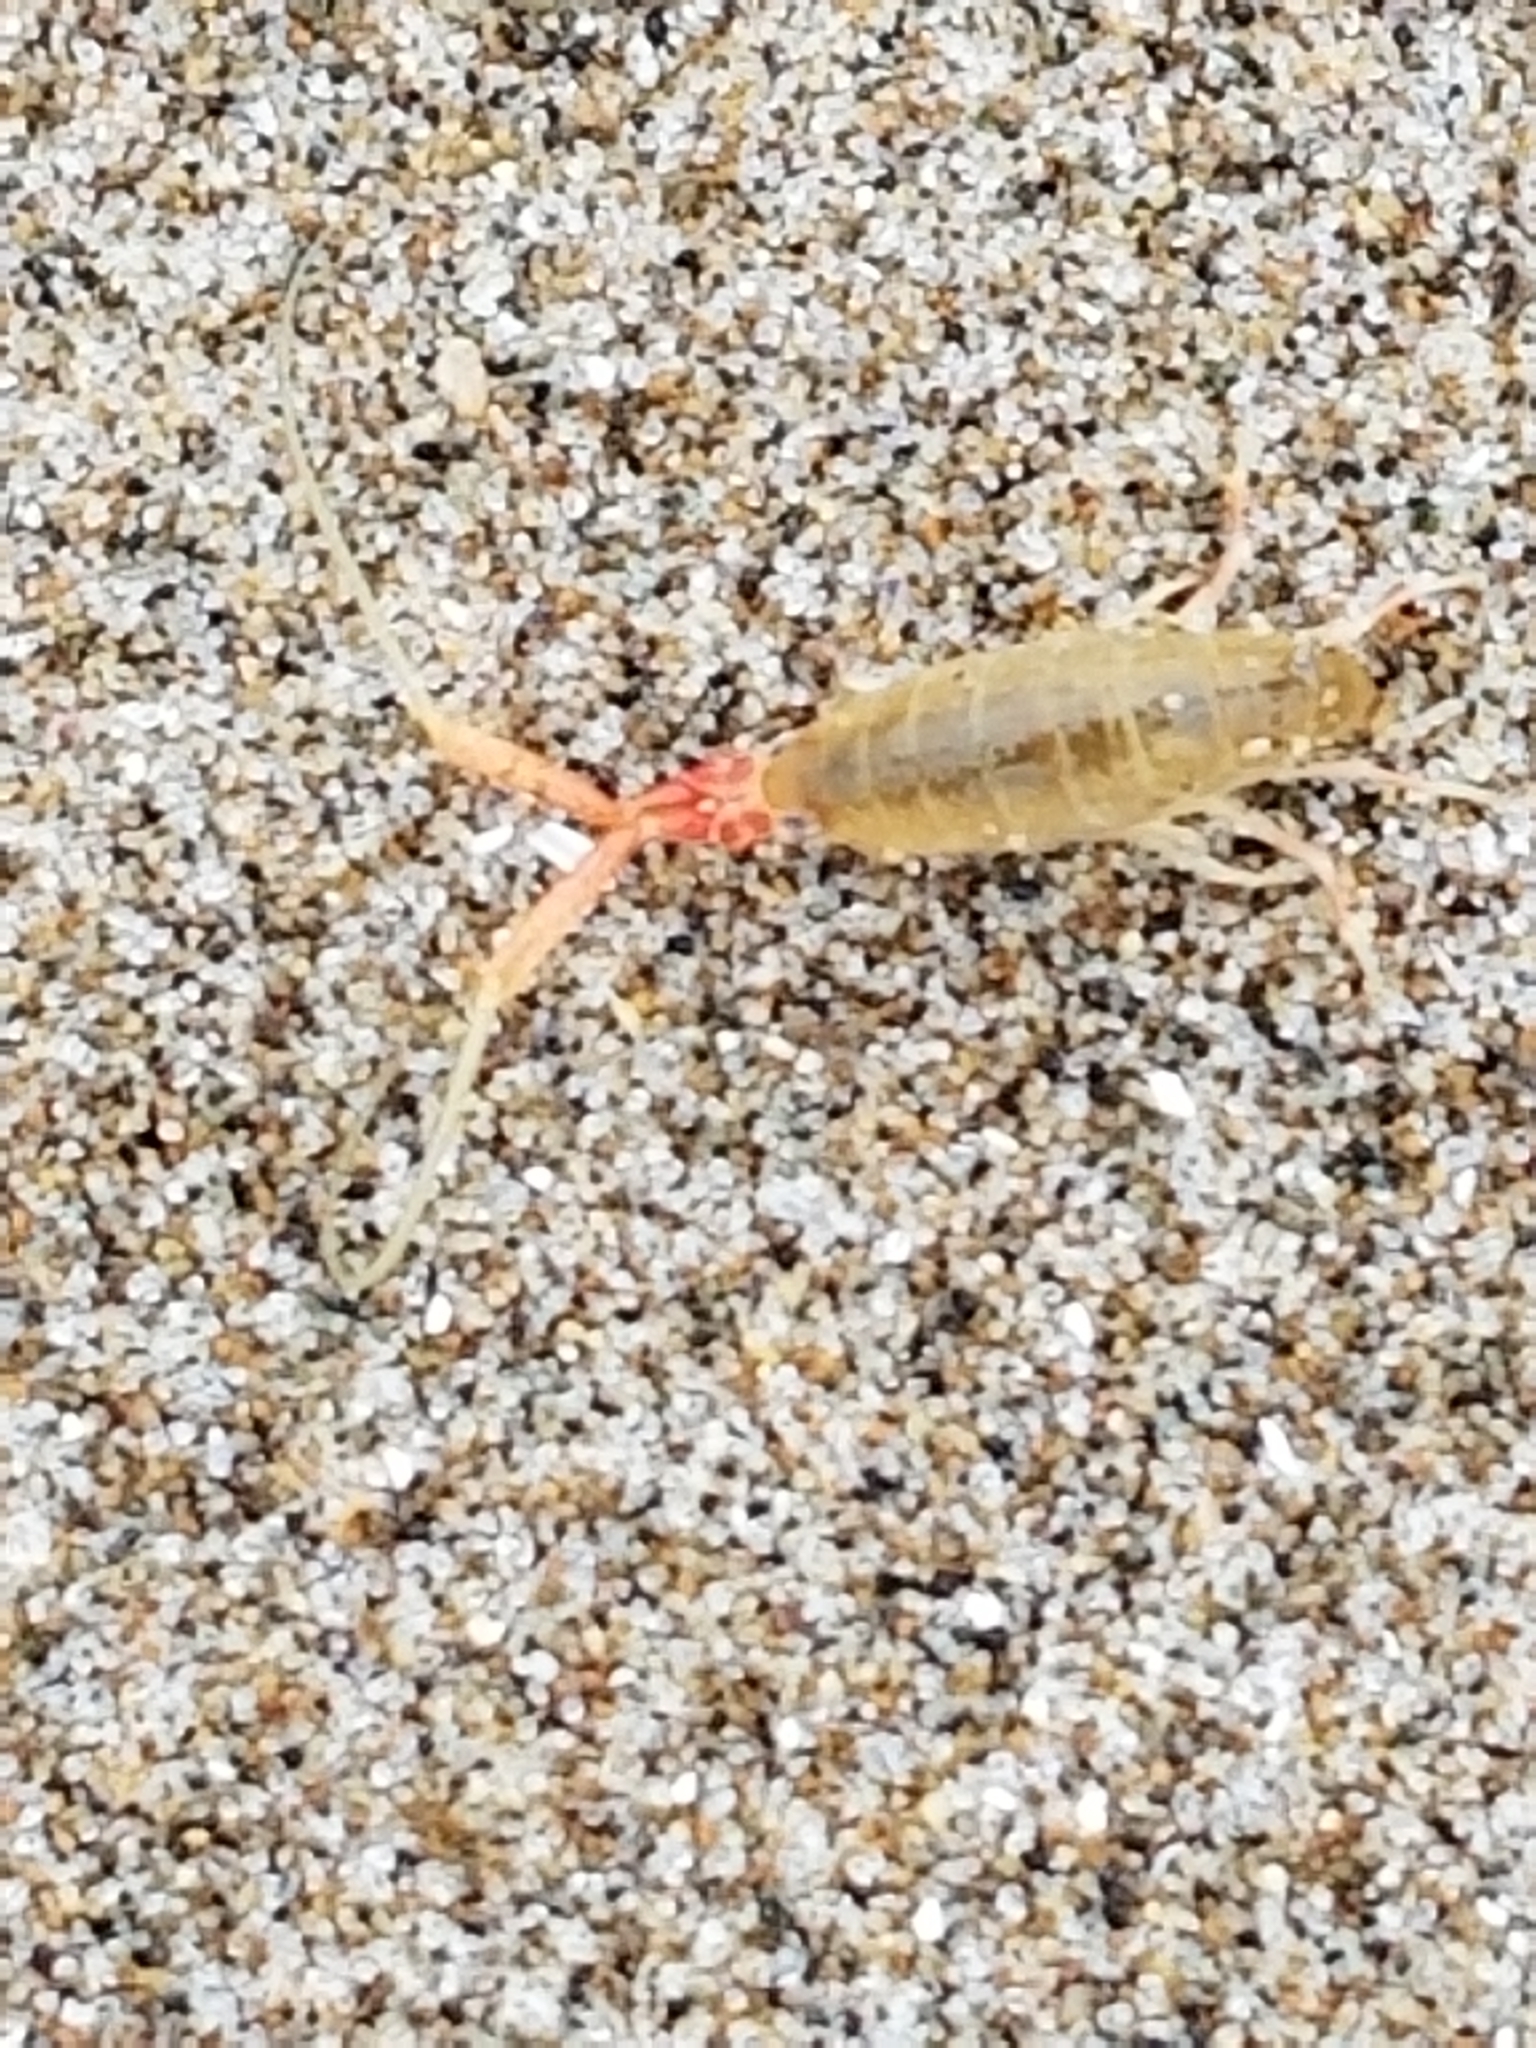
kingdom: Animalia
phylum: Arthropoda
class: Malacostraca
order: Amphipoda
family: Talitridae
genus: Megalorchestia
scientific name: Megalorchestia californiana
